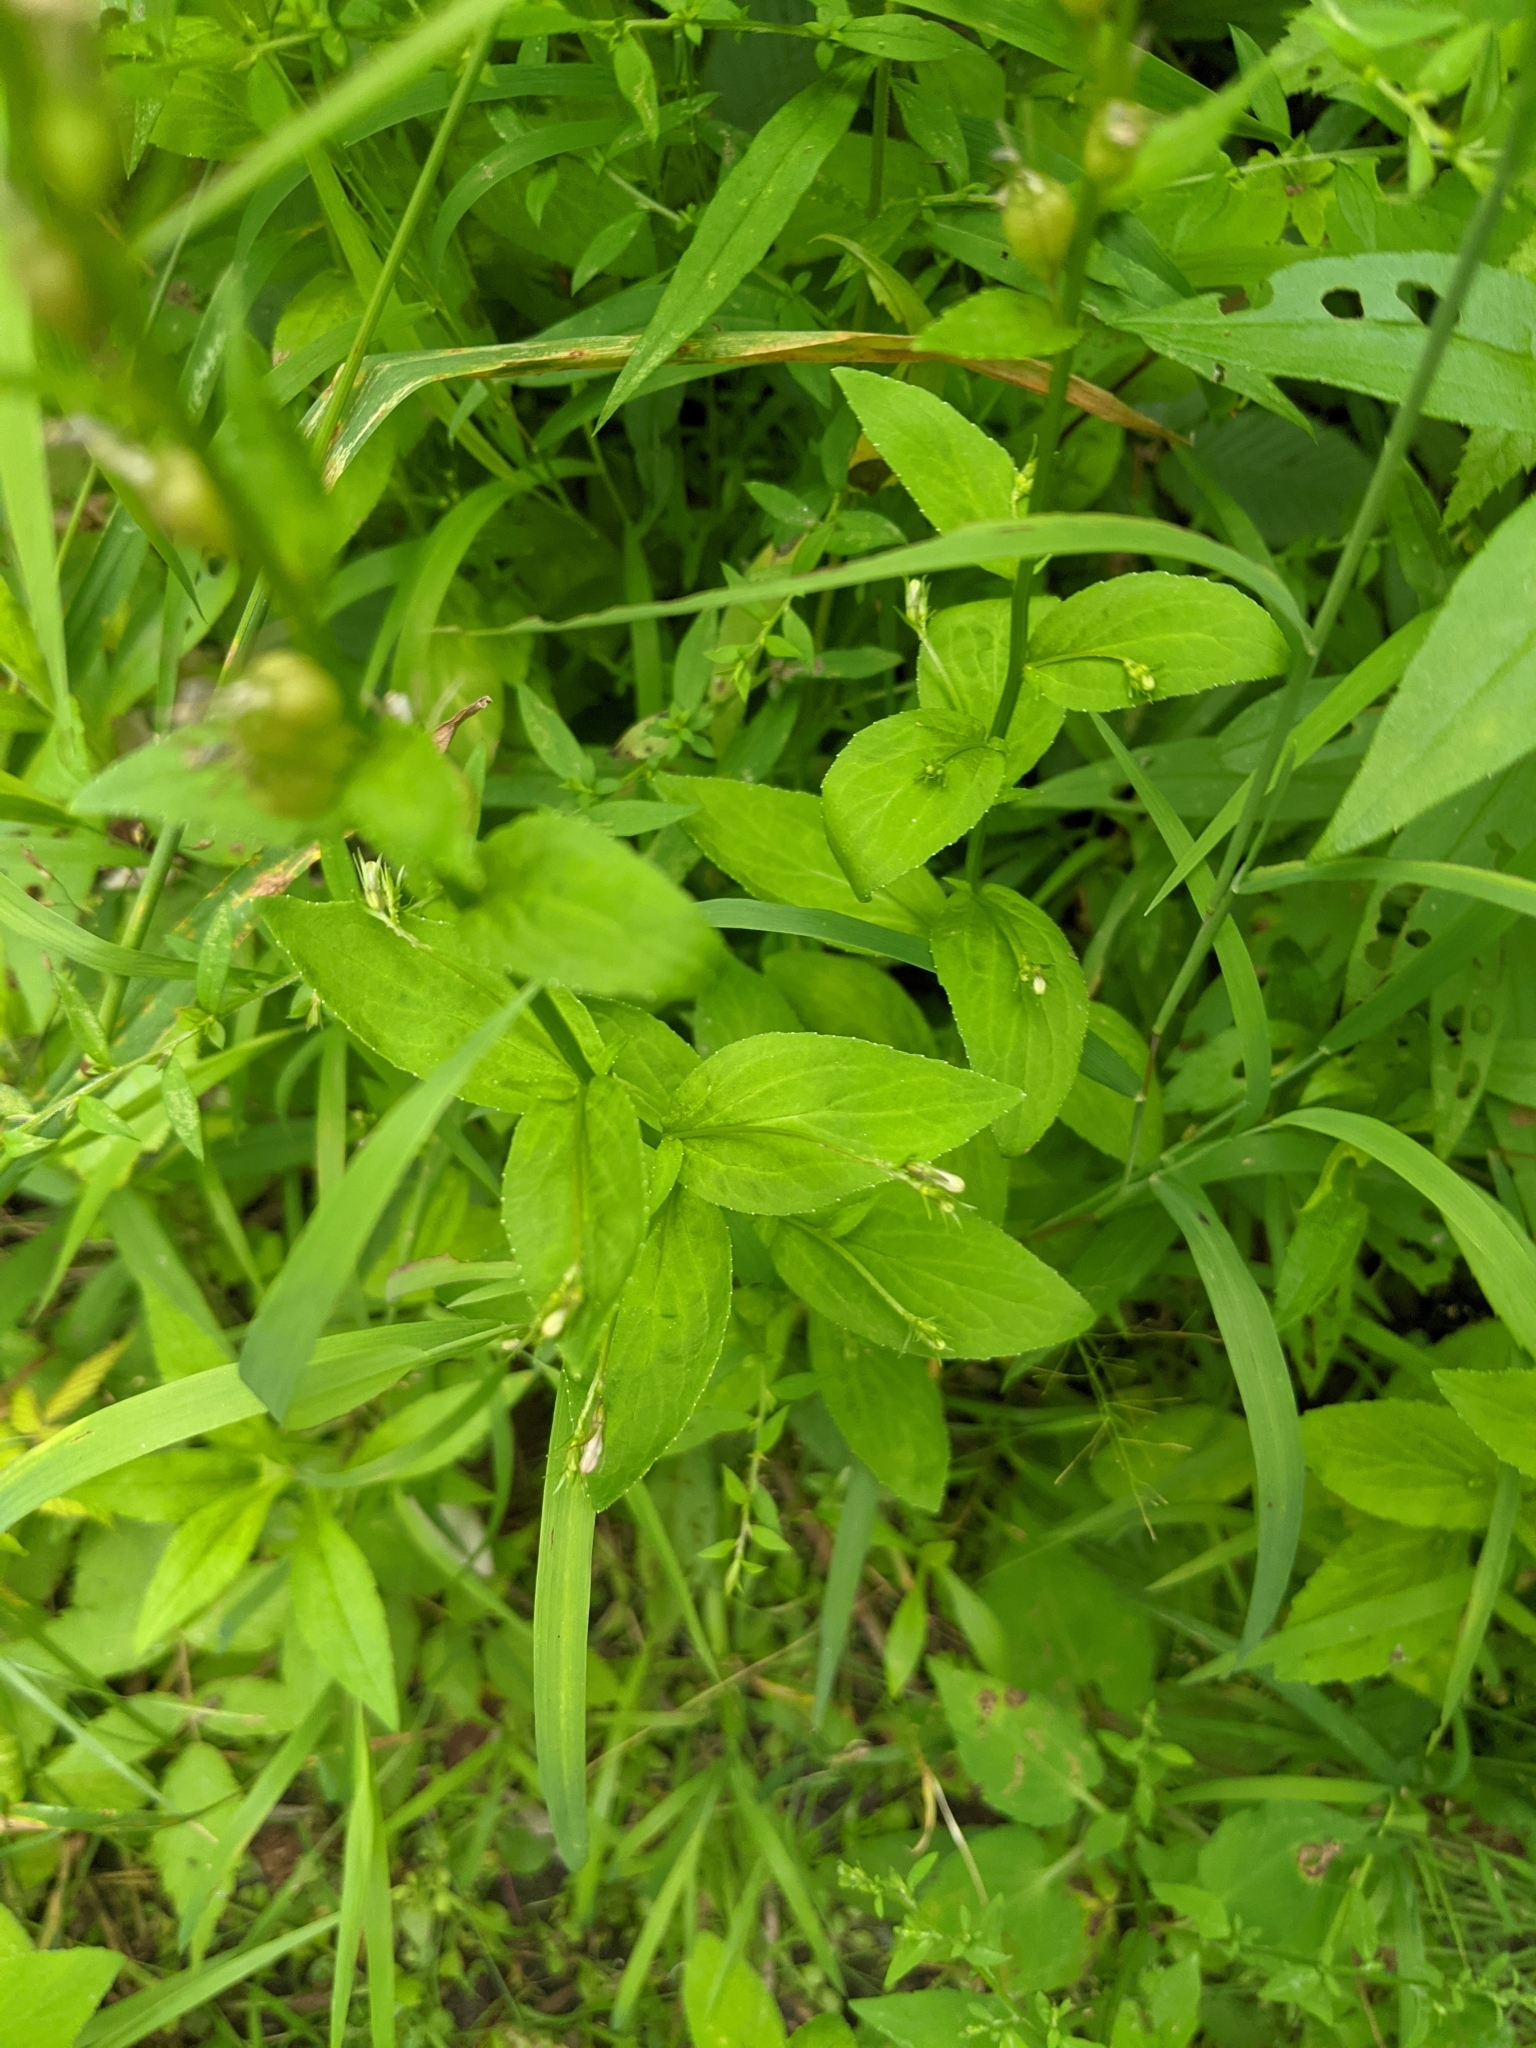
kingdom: Plantae
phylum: Tracheophyta
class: Magnoliopsida
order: Asterales
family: Campanulaceae
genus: Lobelia
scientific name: Lobelia inflata
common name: Indian tobacco
